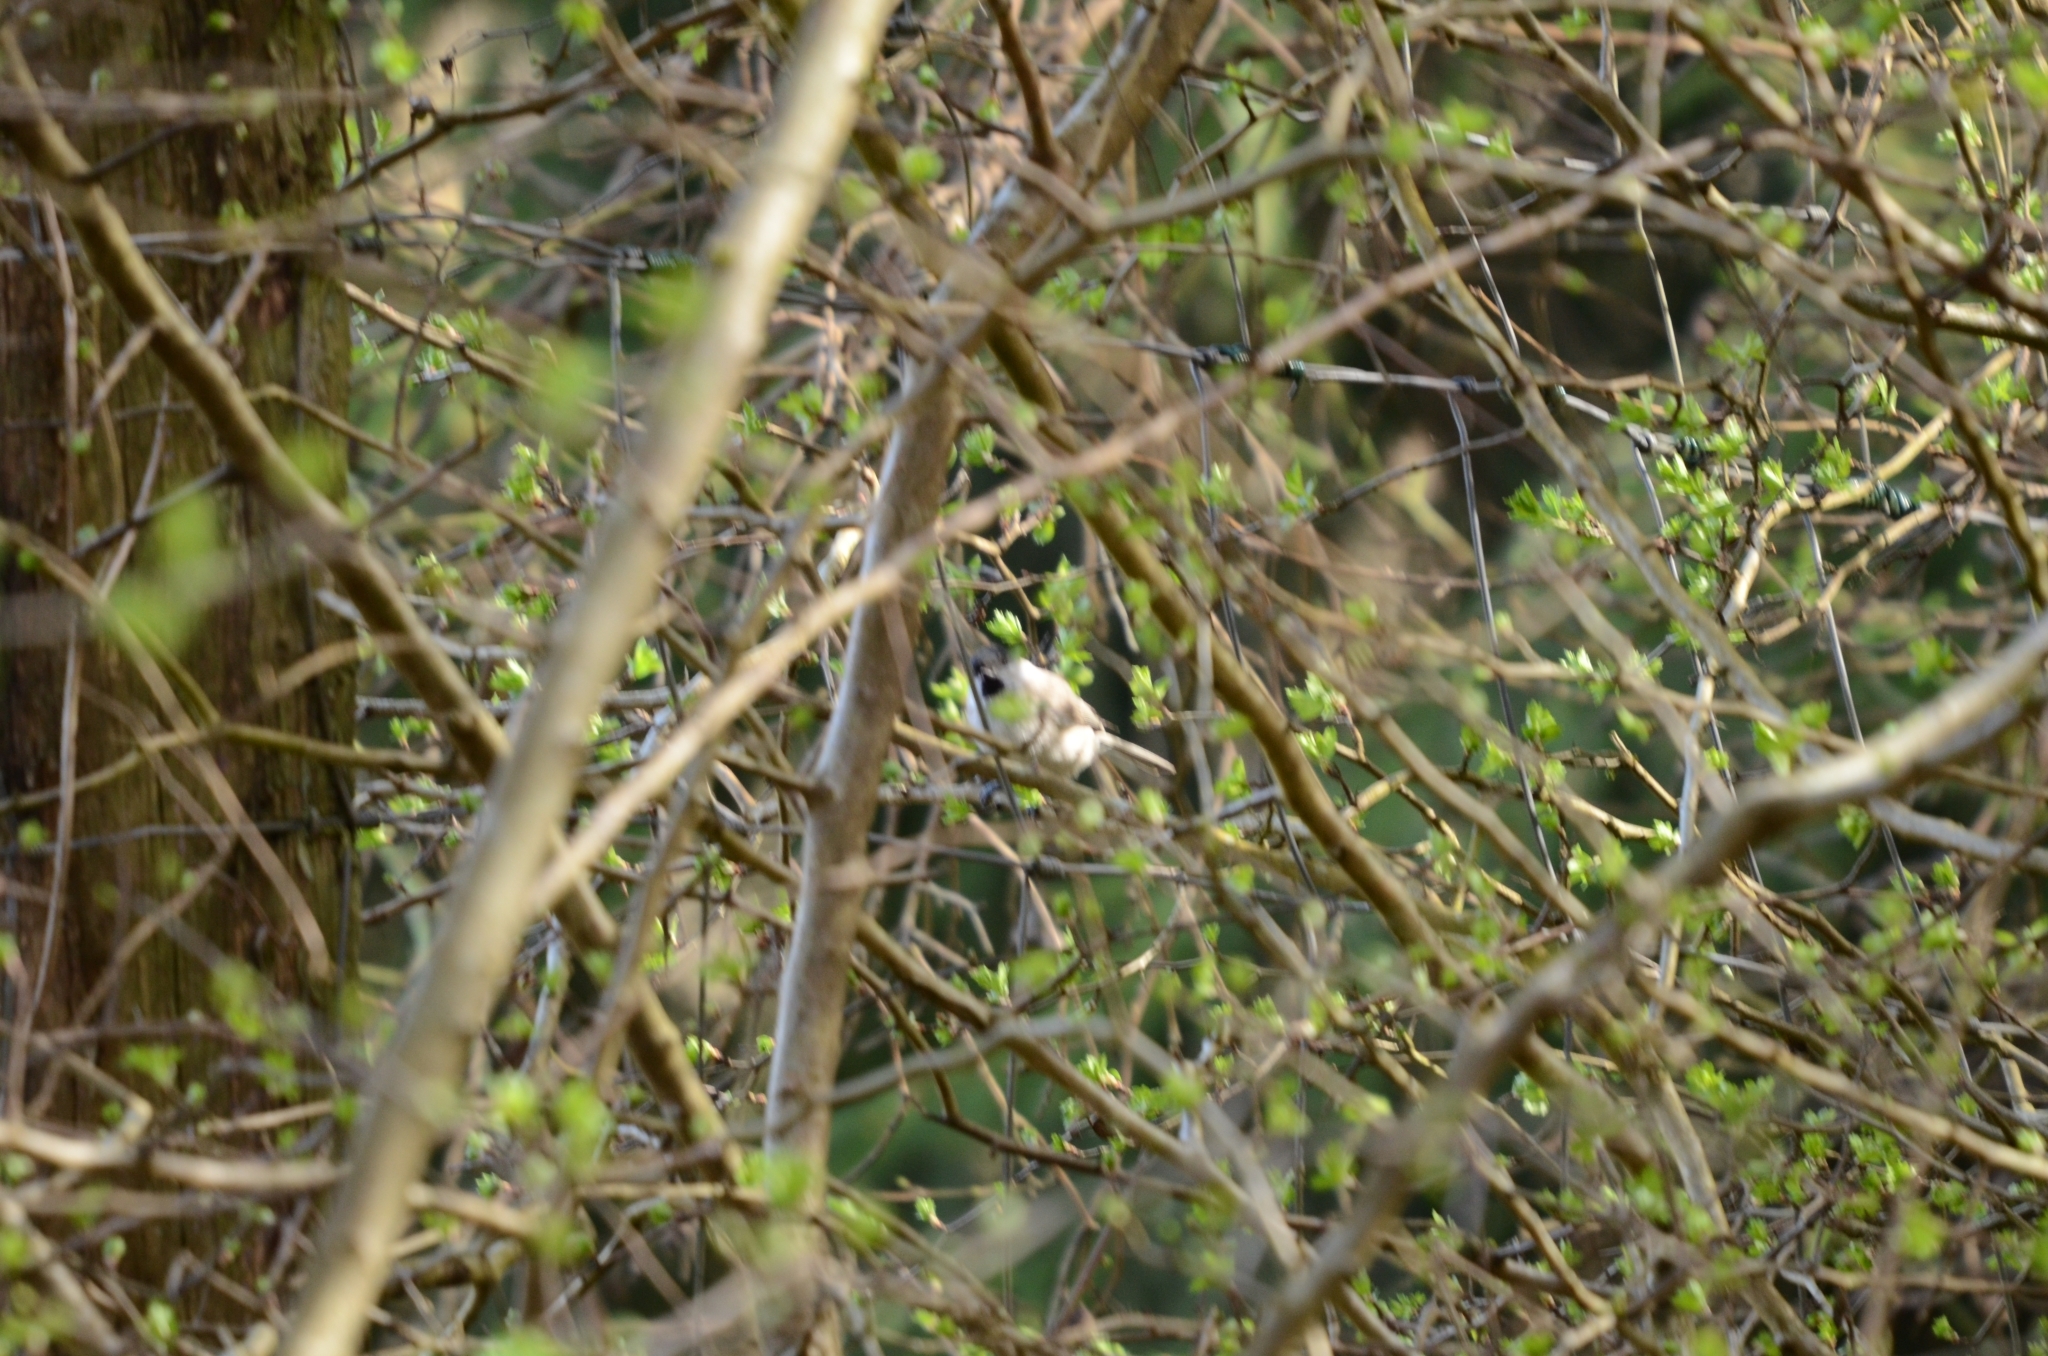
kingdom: Animalia
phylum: Chordata
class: Aves
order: Passeriformes
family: Paridae
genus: Poecile
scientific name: Poecile palustris
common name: Marsh tit
